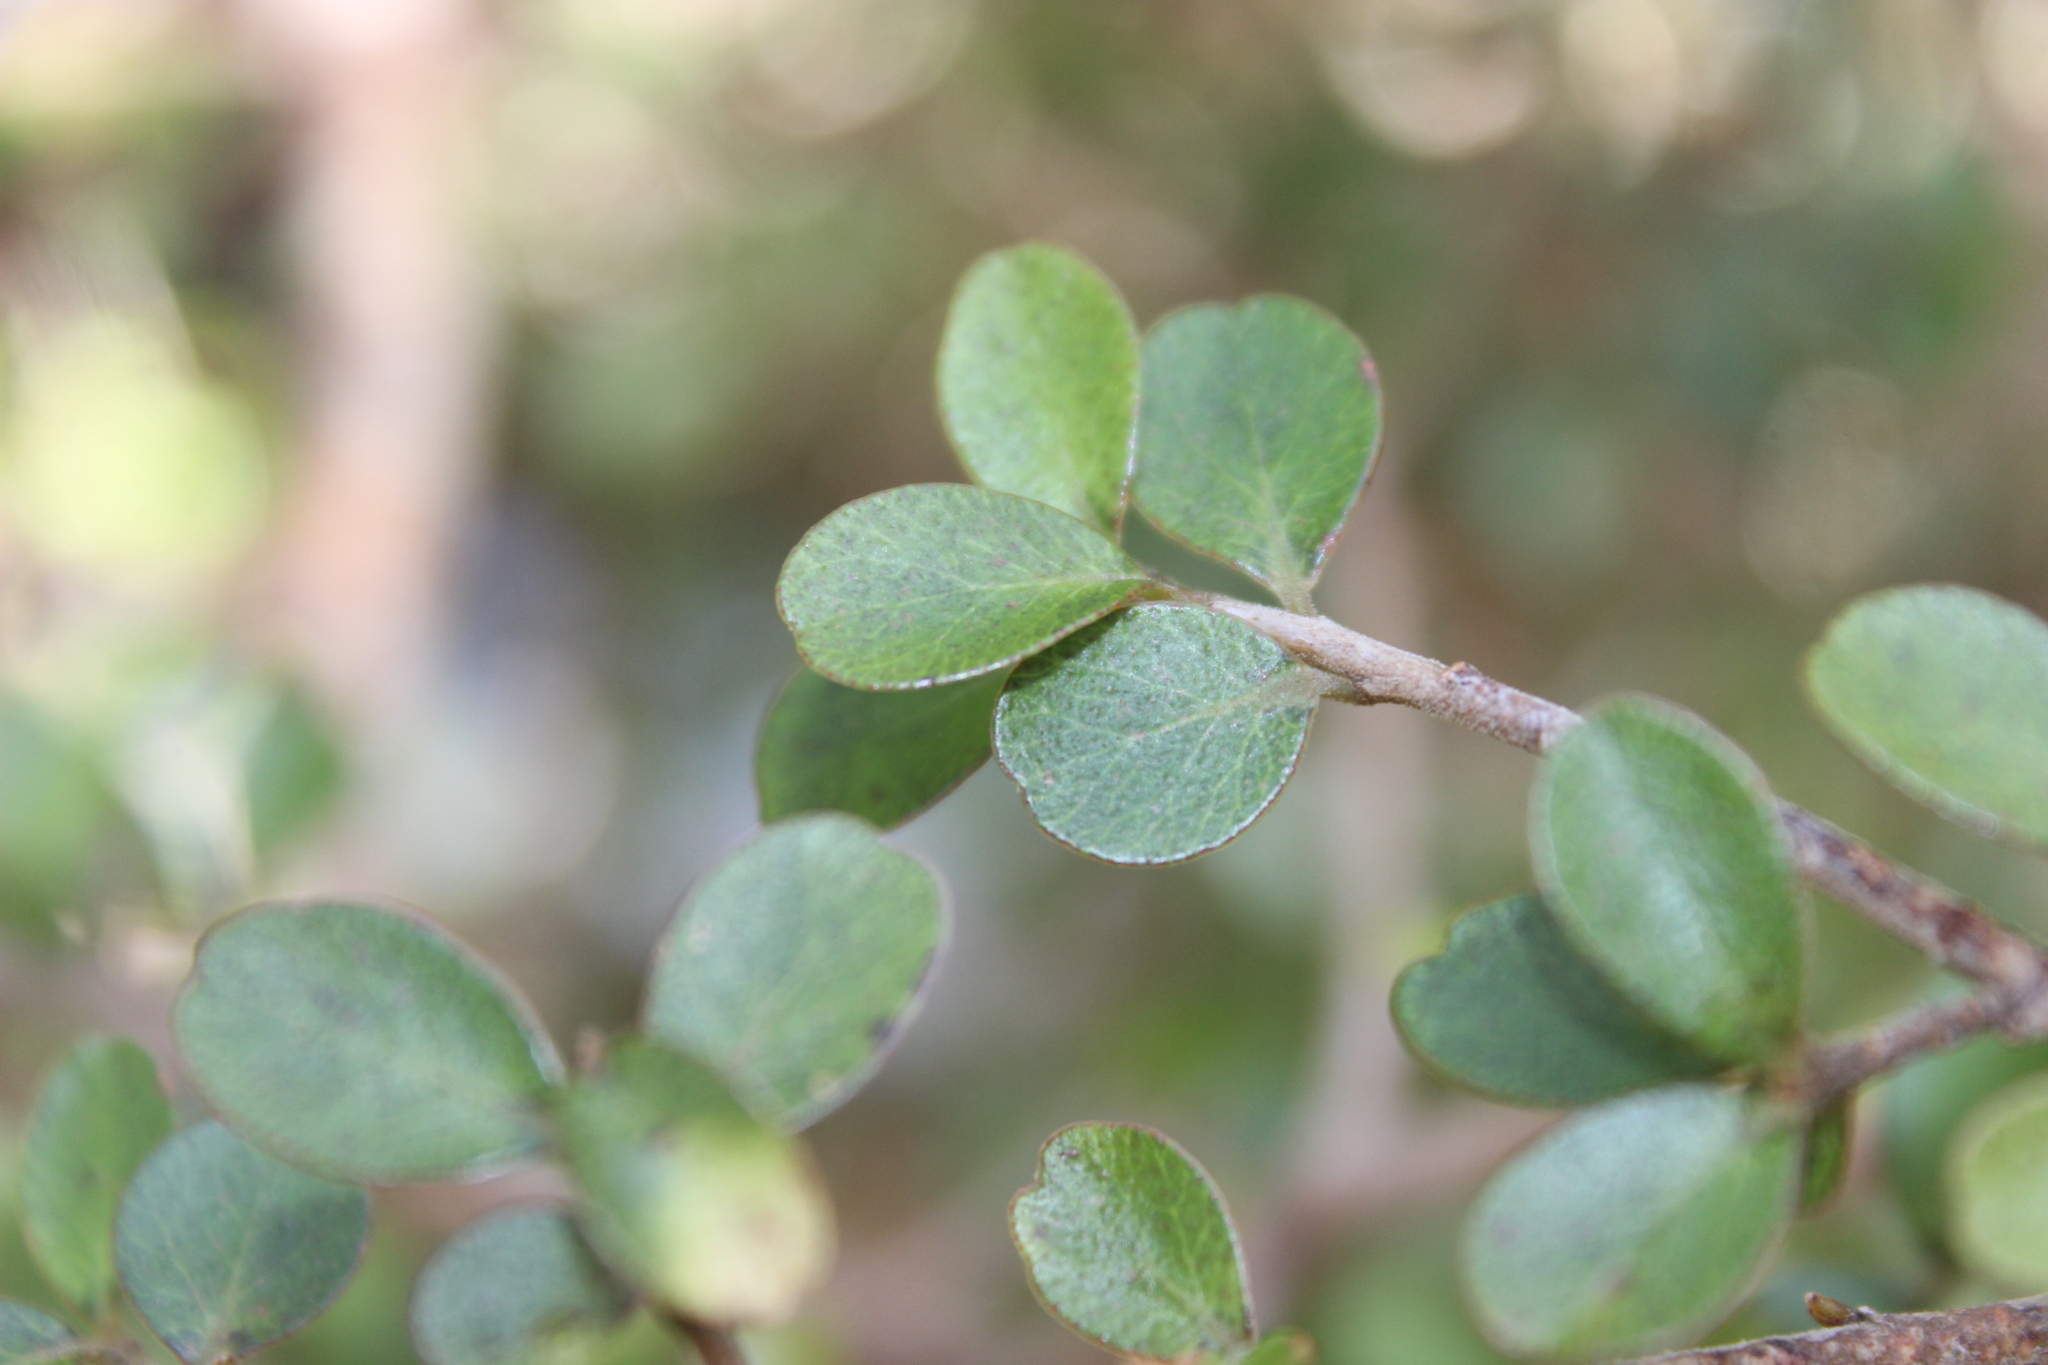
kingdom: Plantae
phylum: Tracheophyta
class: Magnoliopsida
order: Ericales
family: Primulaceae
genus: Myrsine
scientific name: Myrsine umbricola
